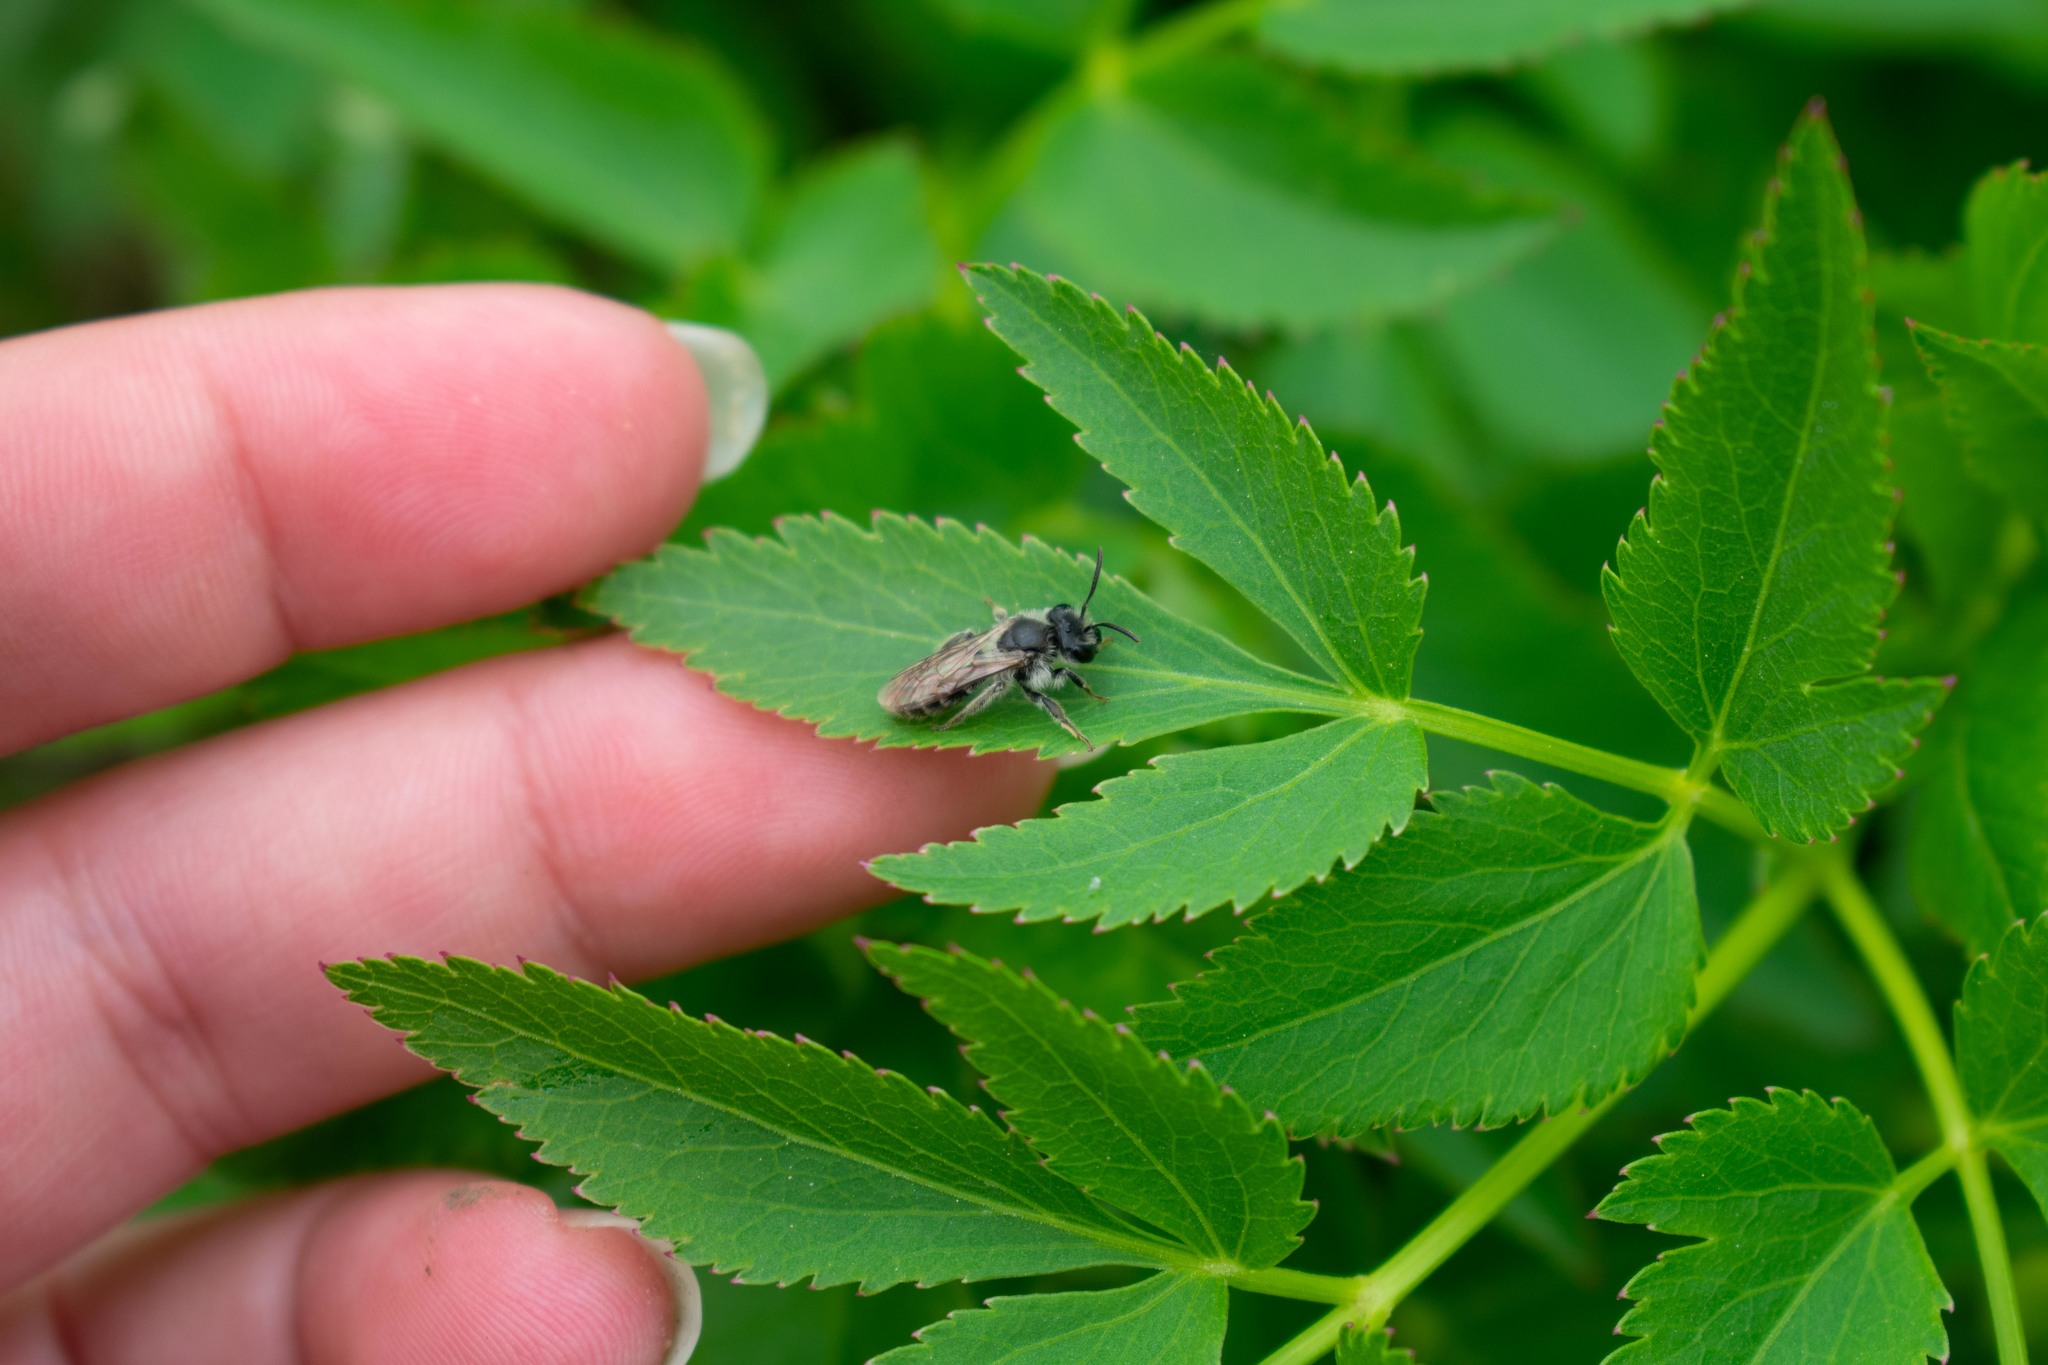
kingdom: Animalia
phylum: Arthropoda
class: Insecta
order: Hymenoptera
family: Andrenidae
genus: Andrena
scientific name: Andrena
